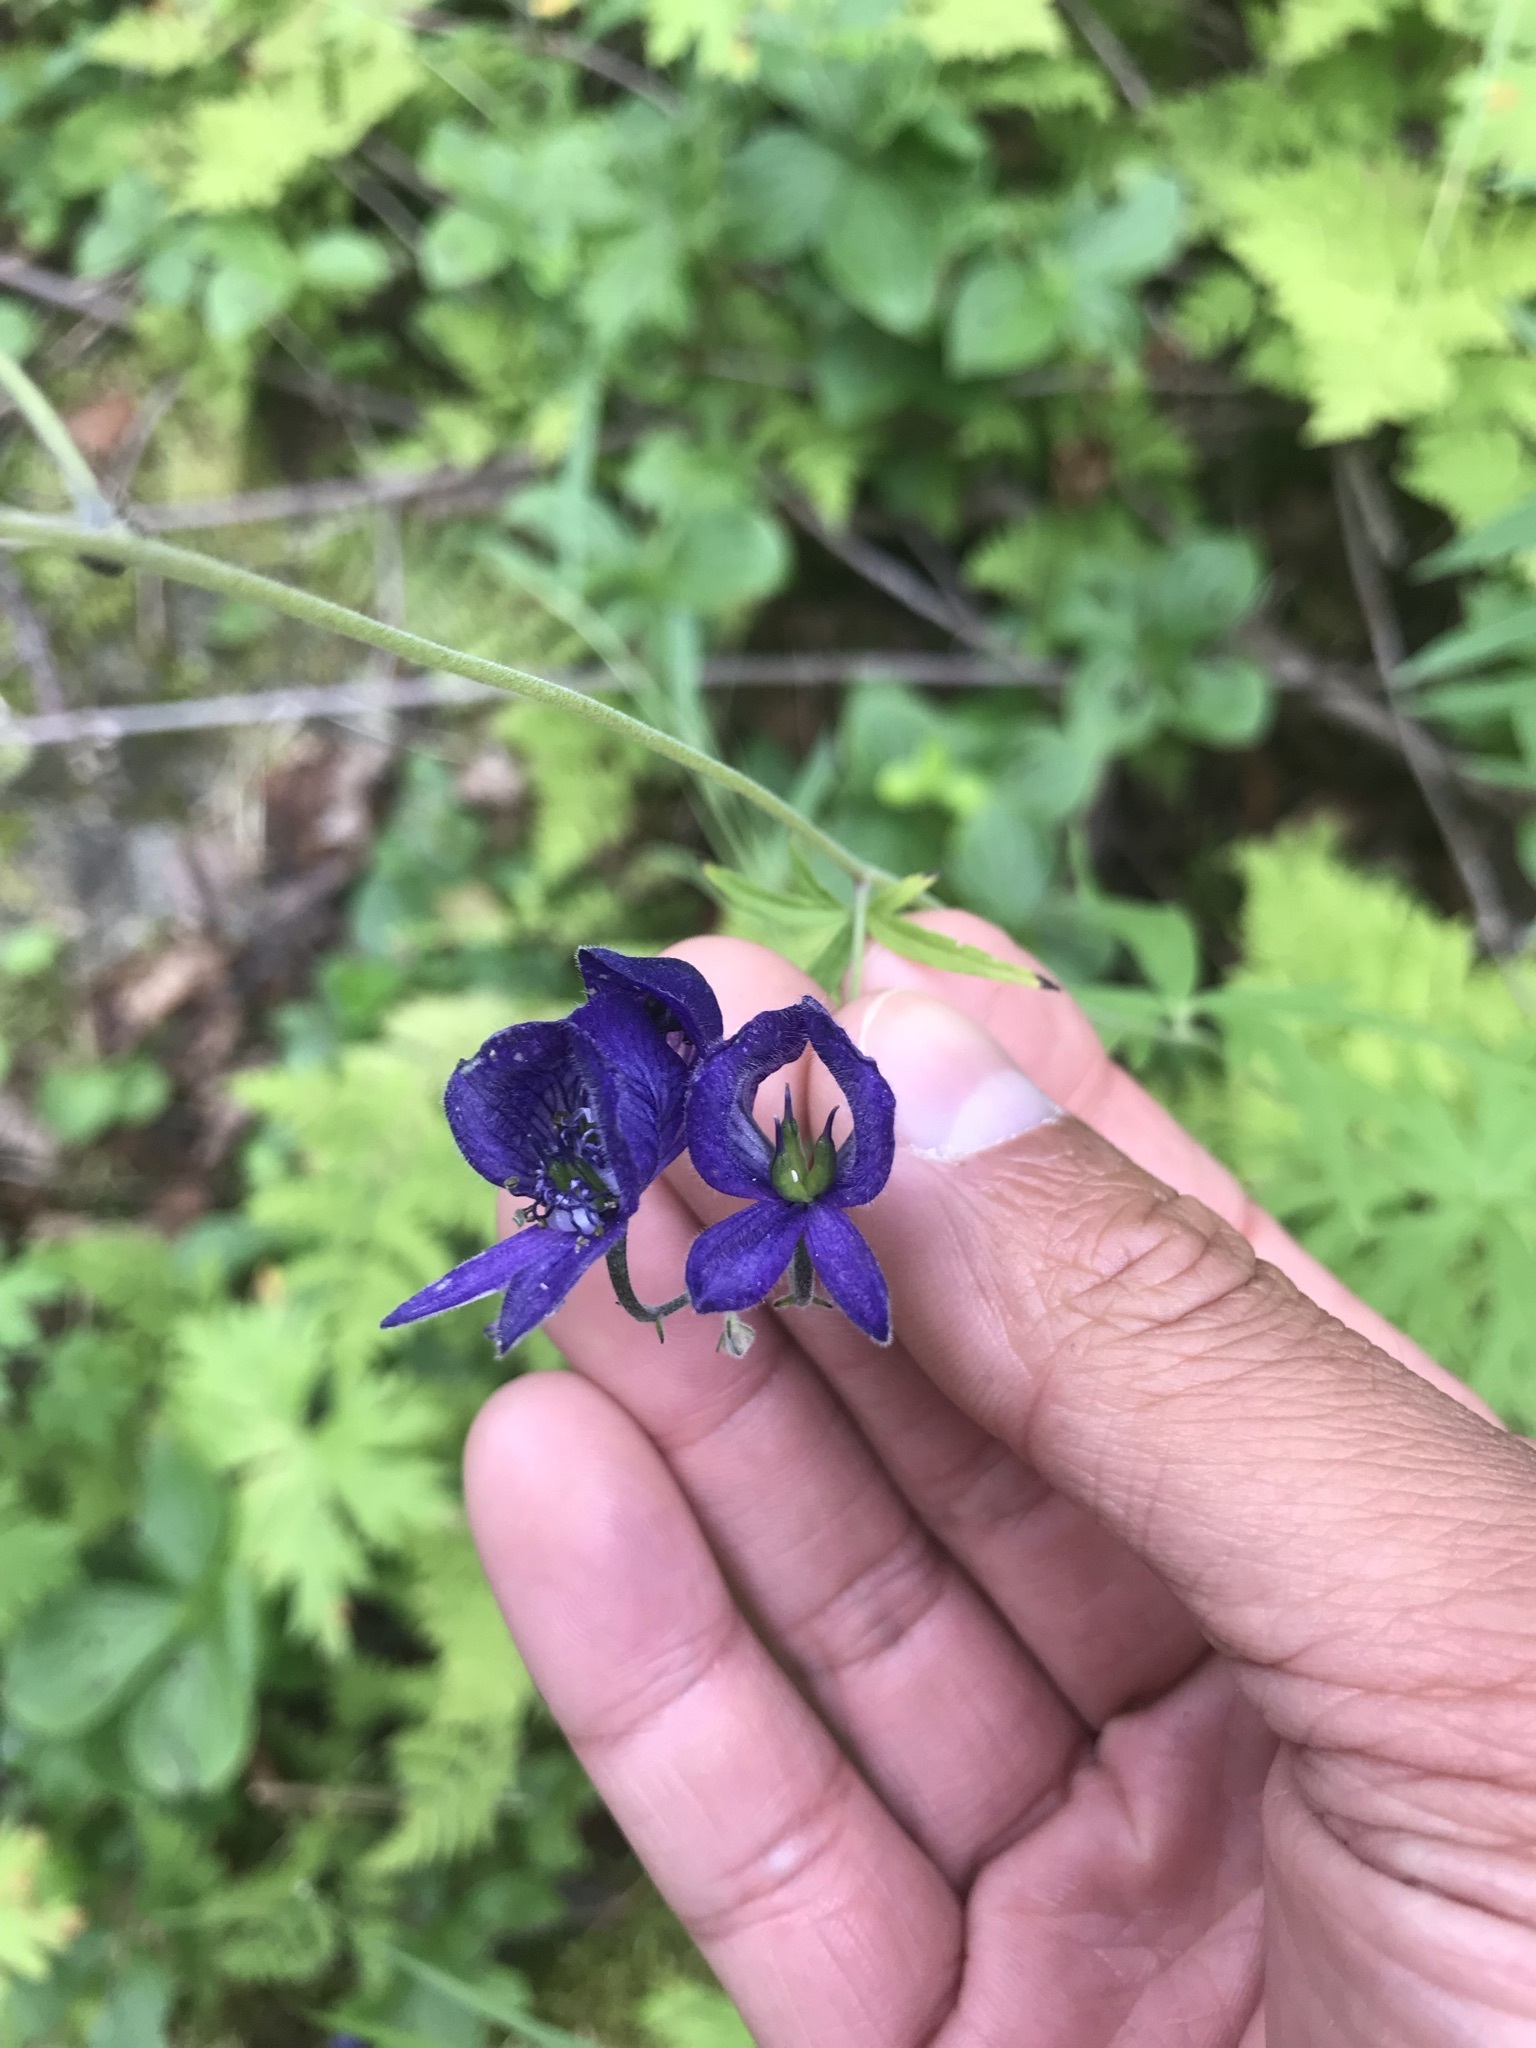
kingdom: Plantae
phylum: Tracheophyta
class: Magnoliopsida
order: Ranunculales
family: Ranunculaceae
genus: Aconitum
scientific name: Aconitum delphiniifolium
